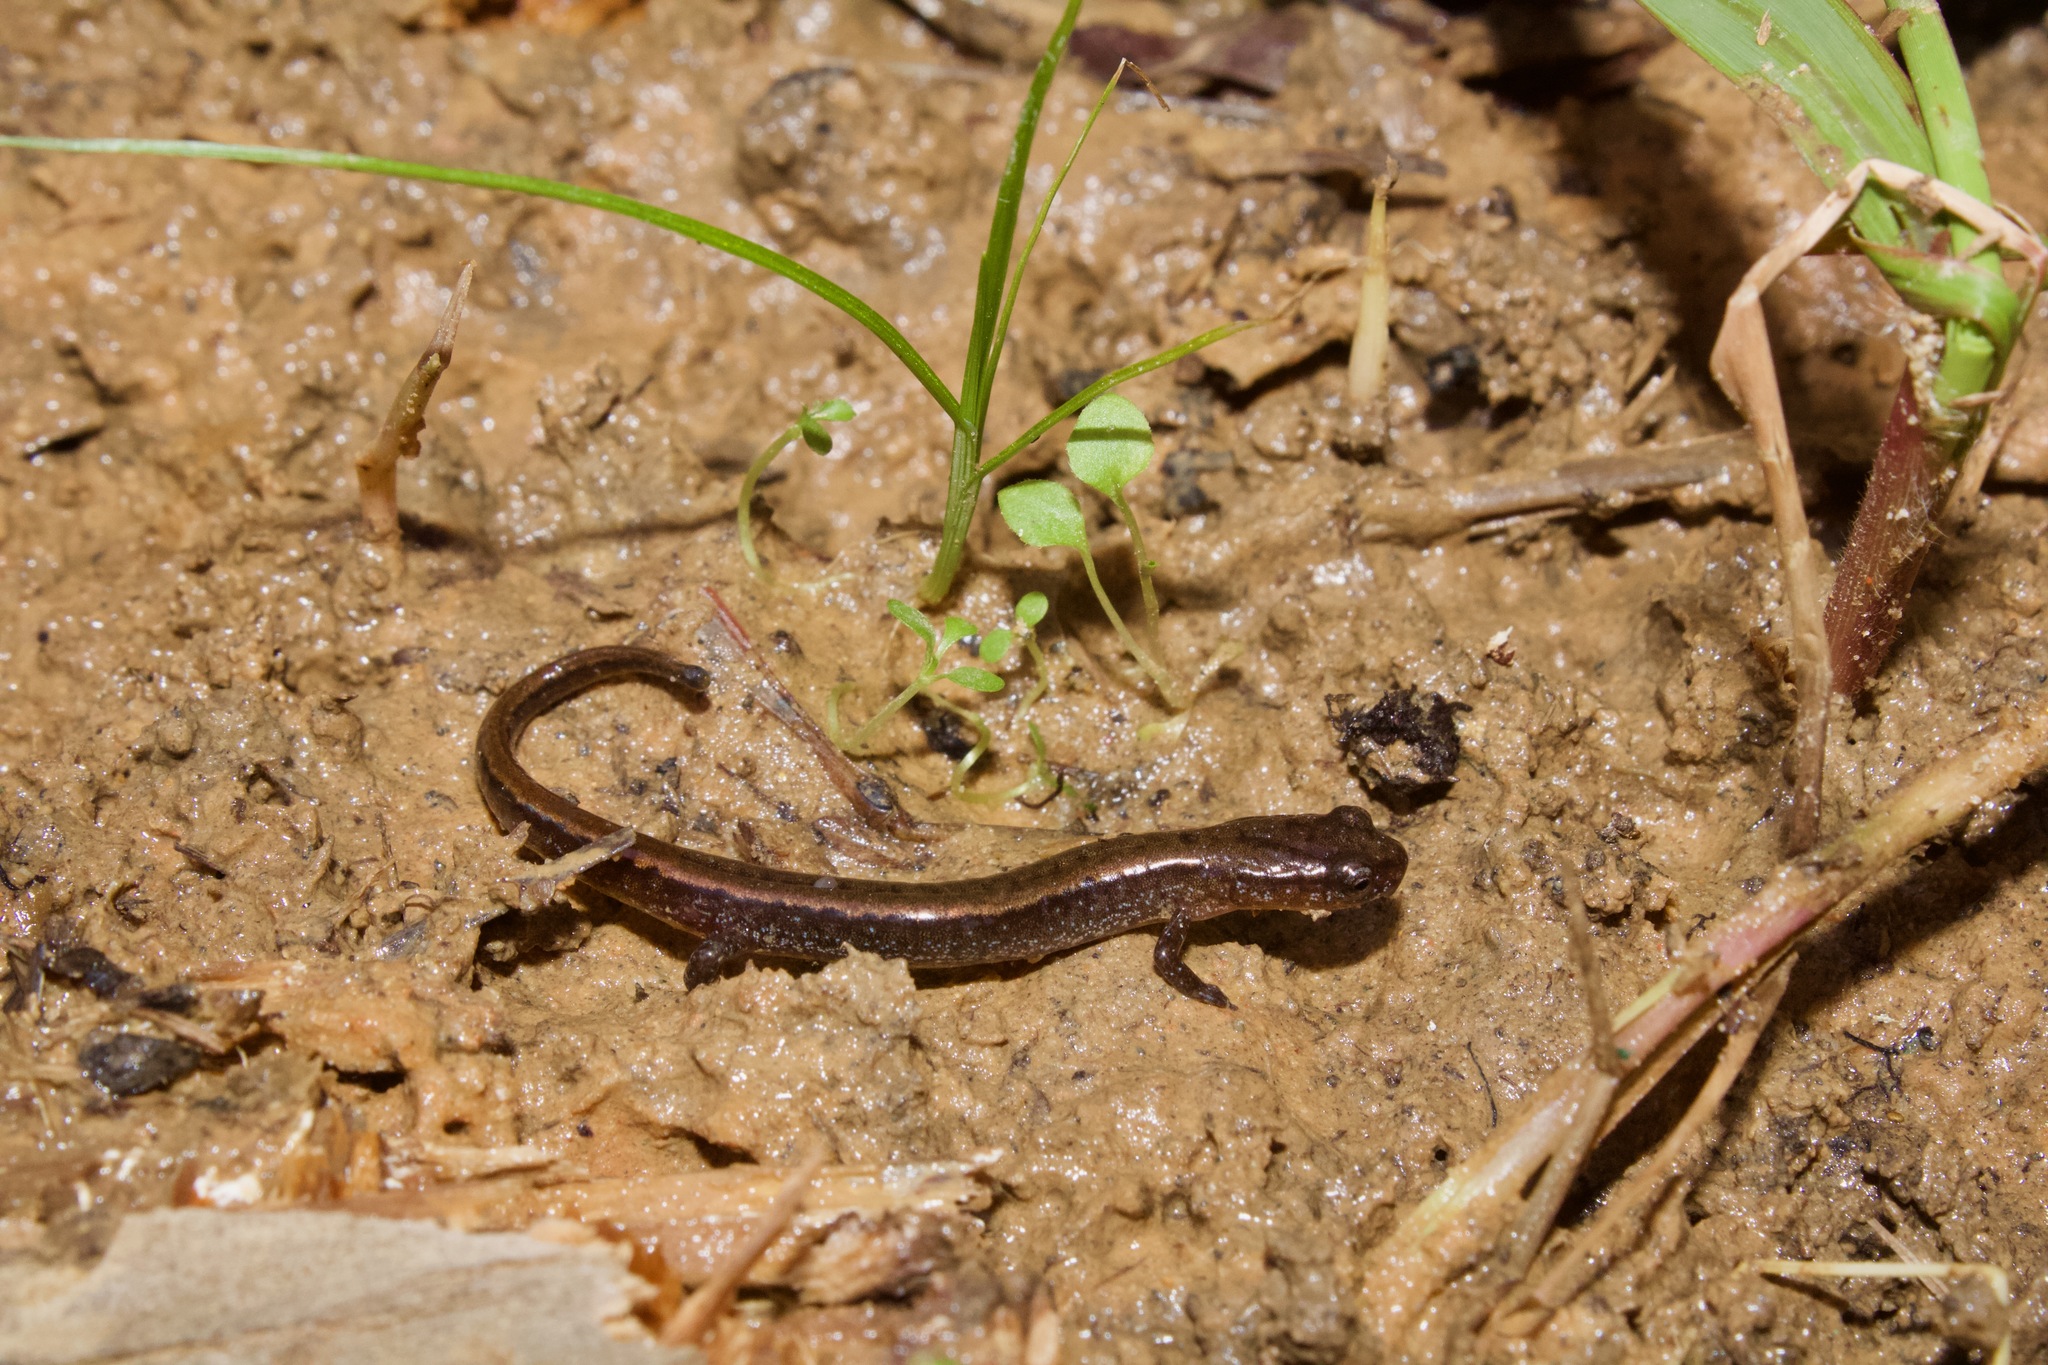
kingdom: Animalia
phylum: Chordata
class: Amphibia
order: Caudata
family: Plethodontidae
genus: Eurycea
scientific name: Eurycea
